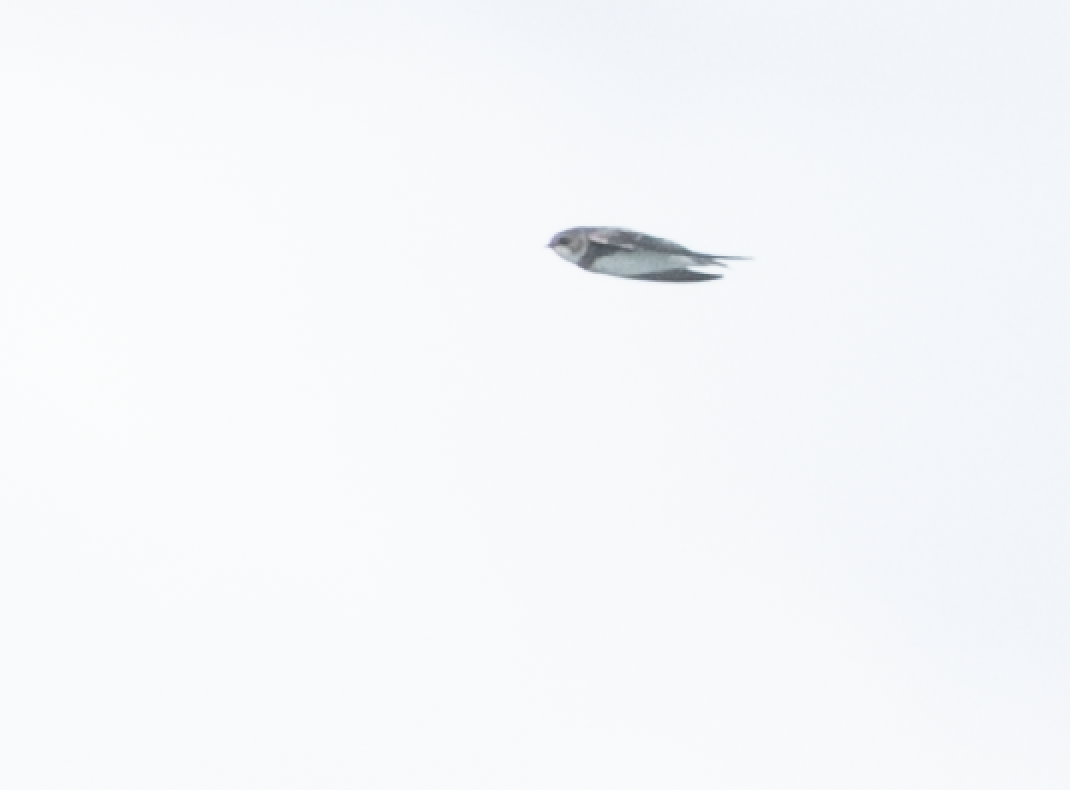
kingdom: Animalia
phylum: Chordata
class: Aves
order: Passeriformes
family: Hirundinidae
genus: Riparia
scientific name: Riparia riparia
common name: Sand martin
